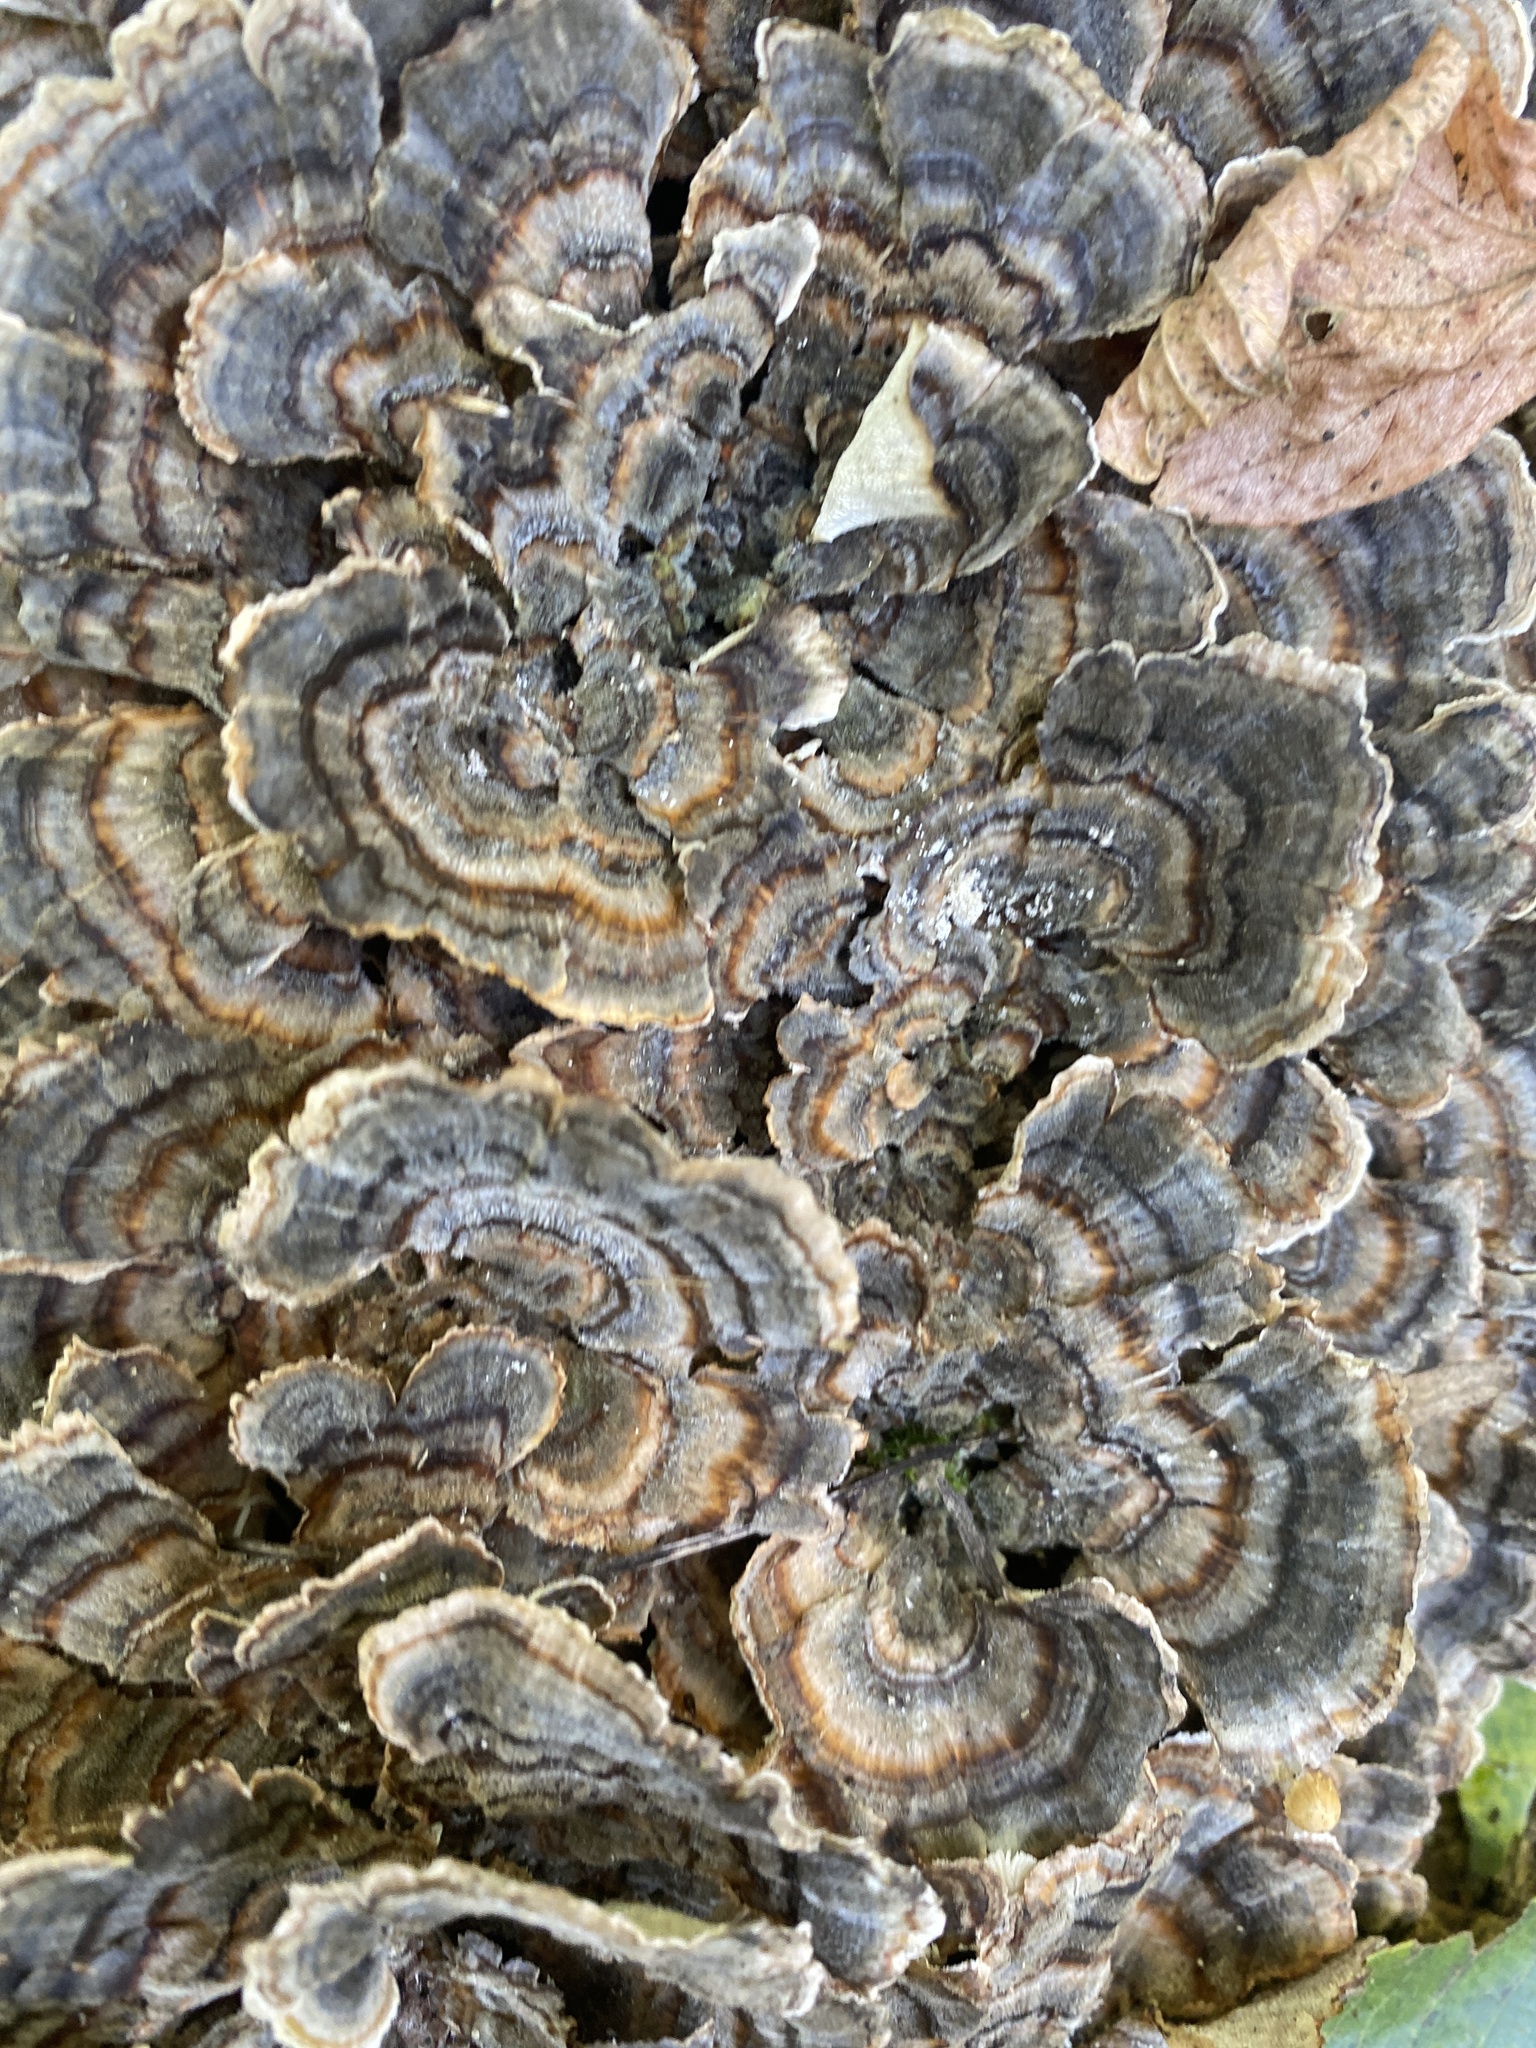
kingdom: Fungi
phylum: Basidiomycota
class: Agaricomycetes
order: Polyporales
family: Polyporaceae
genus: Trametes
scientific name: Trametes versicolor
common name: Turkeytail
